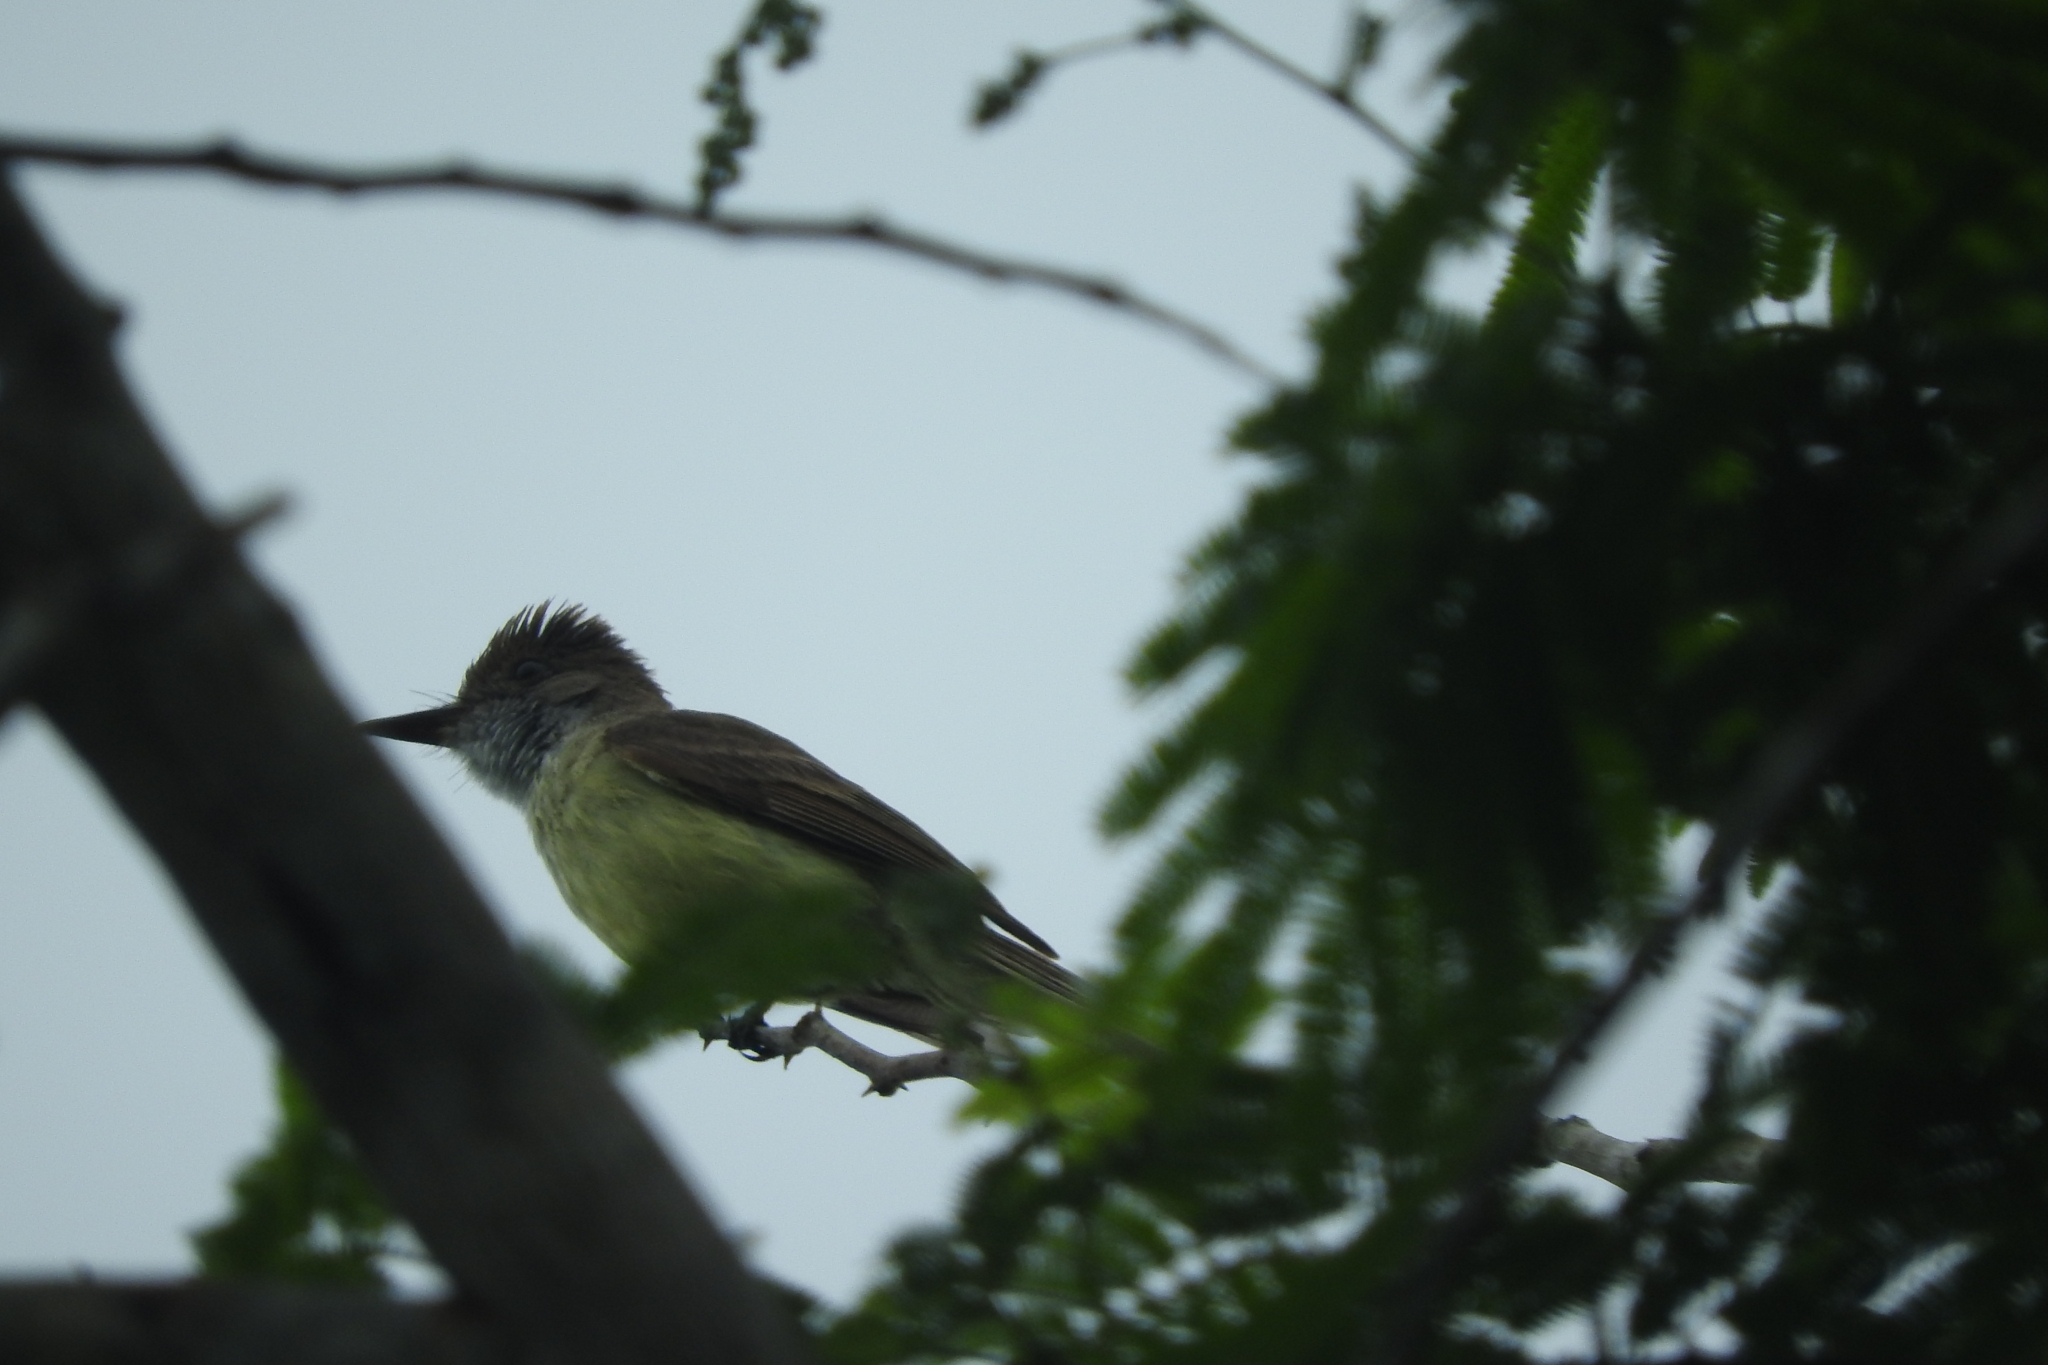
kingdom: Animalia
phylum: Chordata
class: Aves
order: Passeriformes
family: Tyrannidae
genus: Myiarchus
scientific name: Myiarchus tuberculifer
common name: Dusky-capped flycatcher
